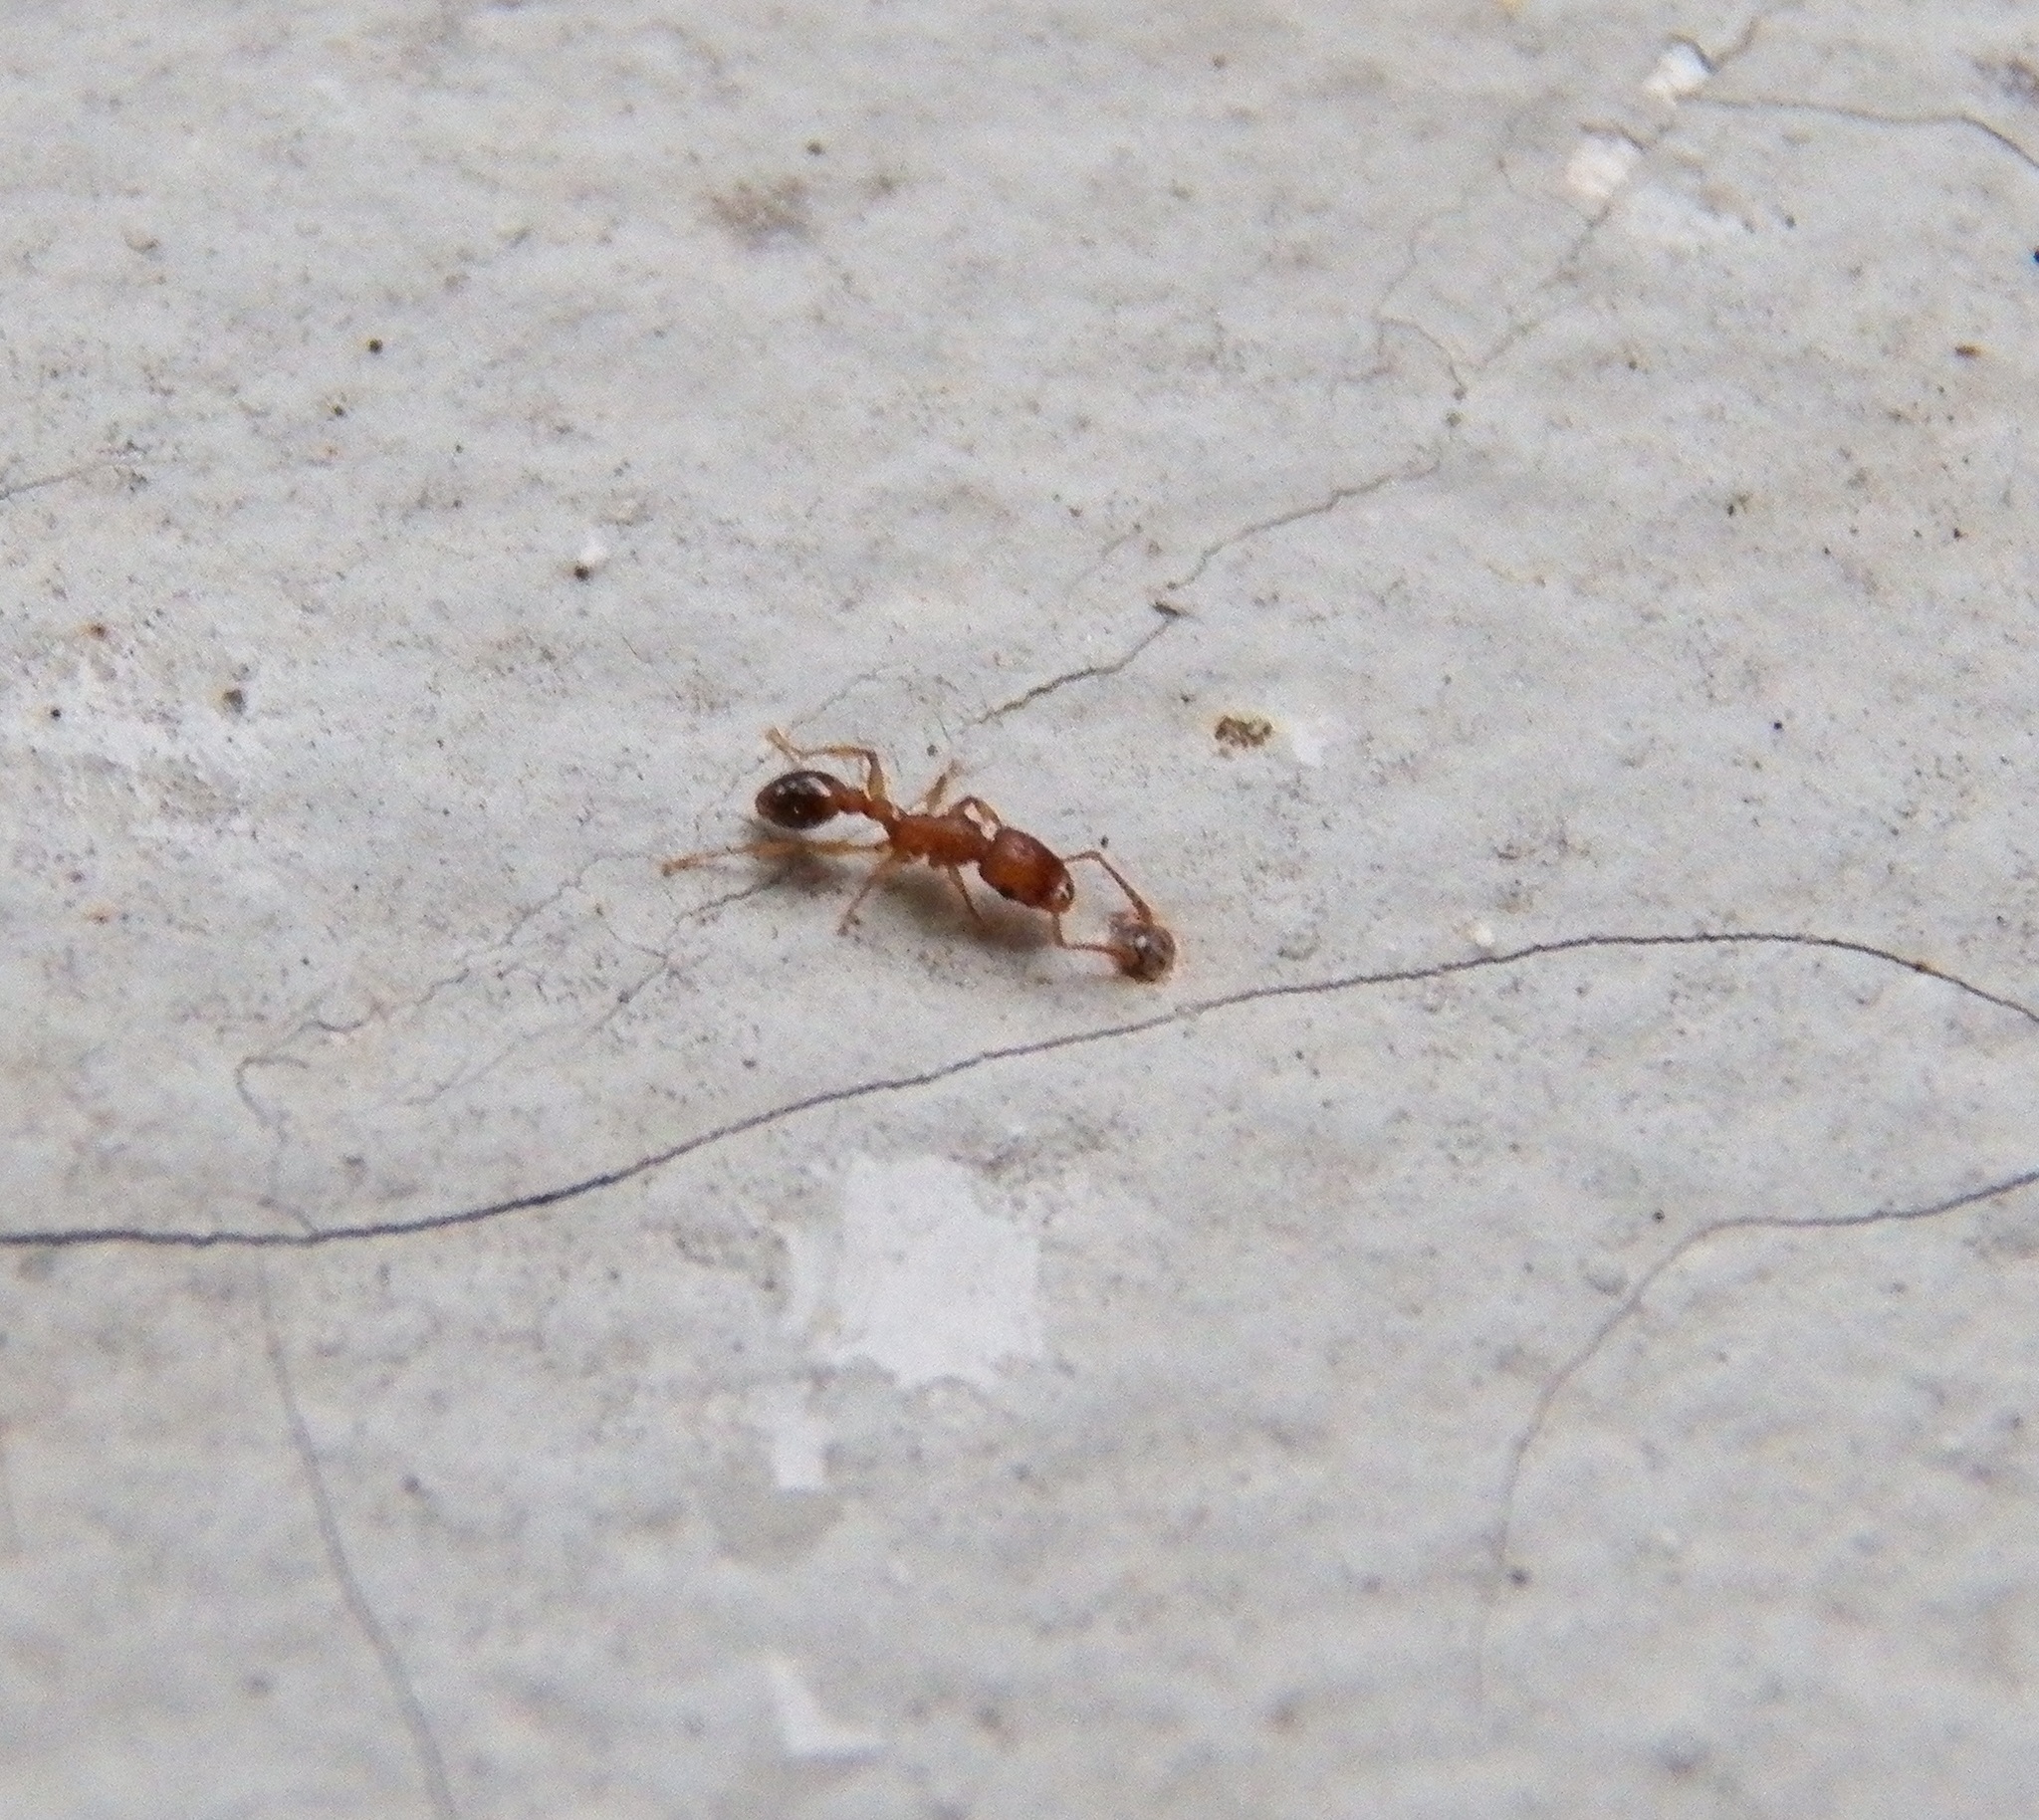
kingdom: Animalia
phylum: Arthropoda
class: Insecta
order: Hymenoptera
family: Formicidae
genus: Tetramorium
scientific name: Tetramorium bicarinatum
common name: Guinea ant
